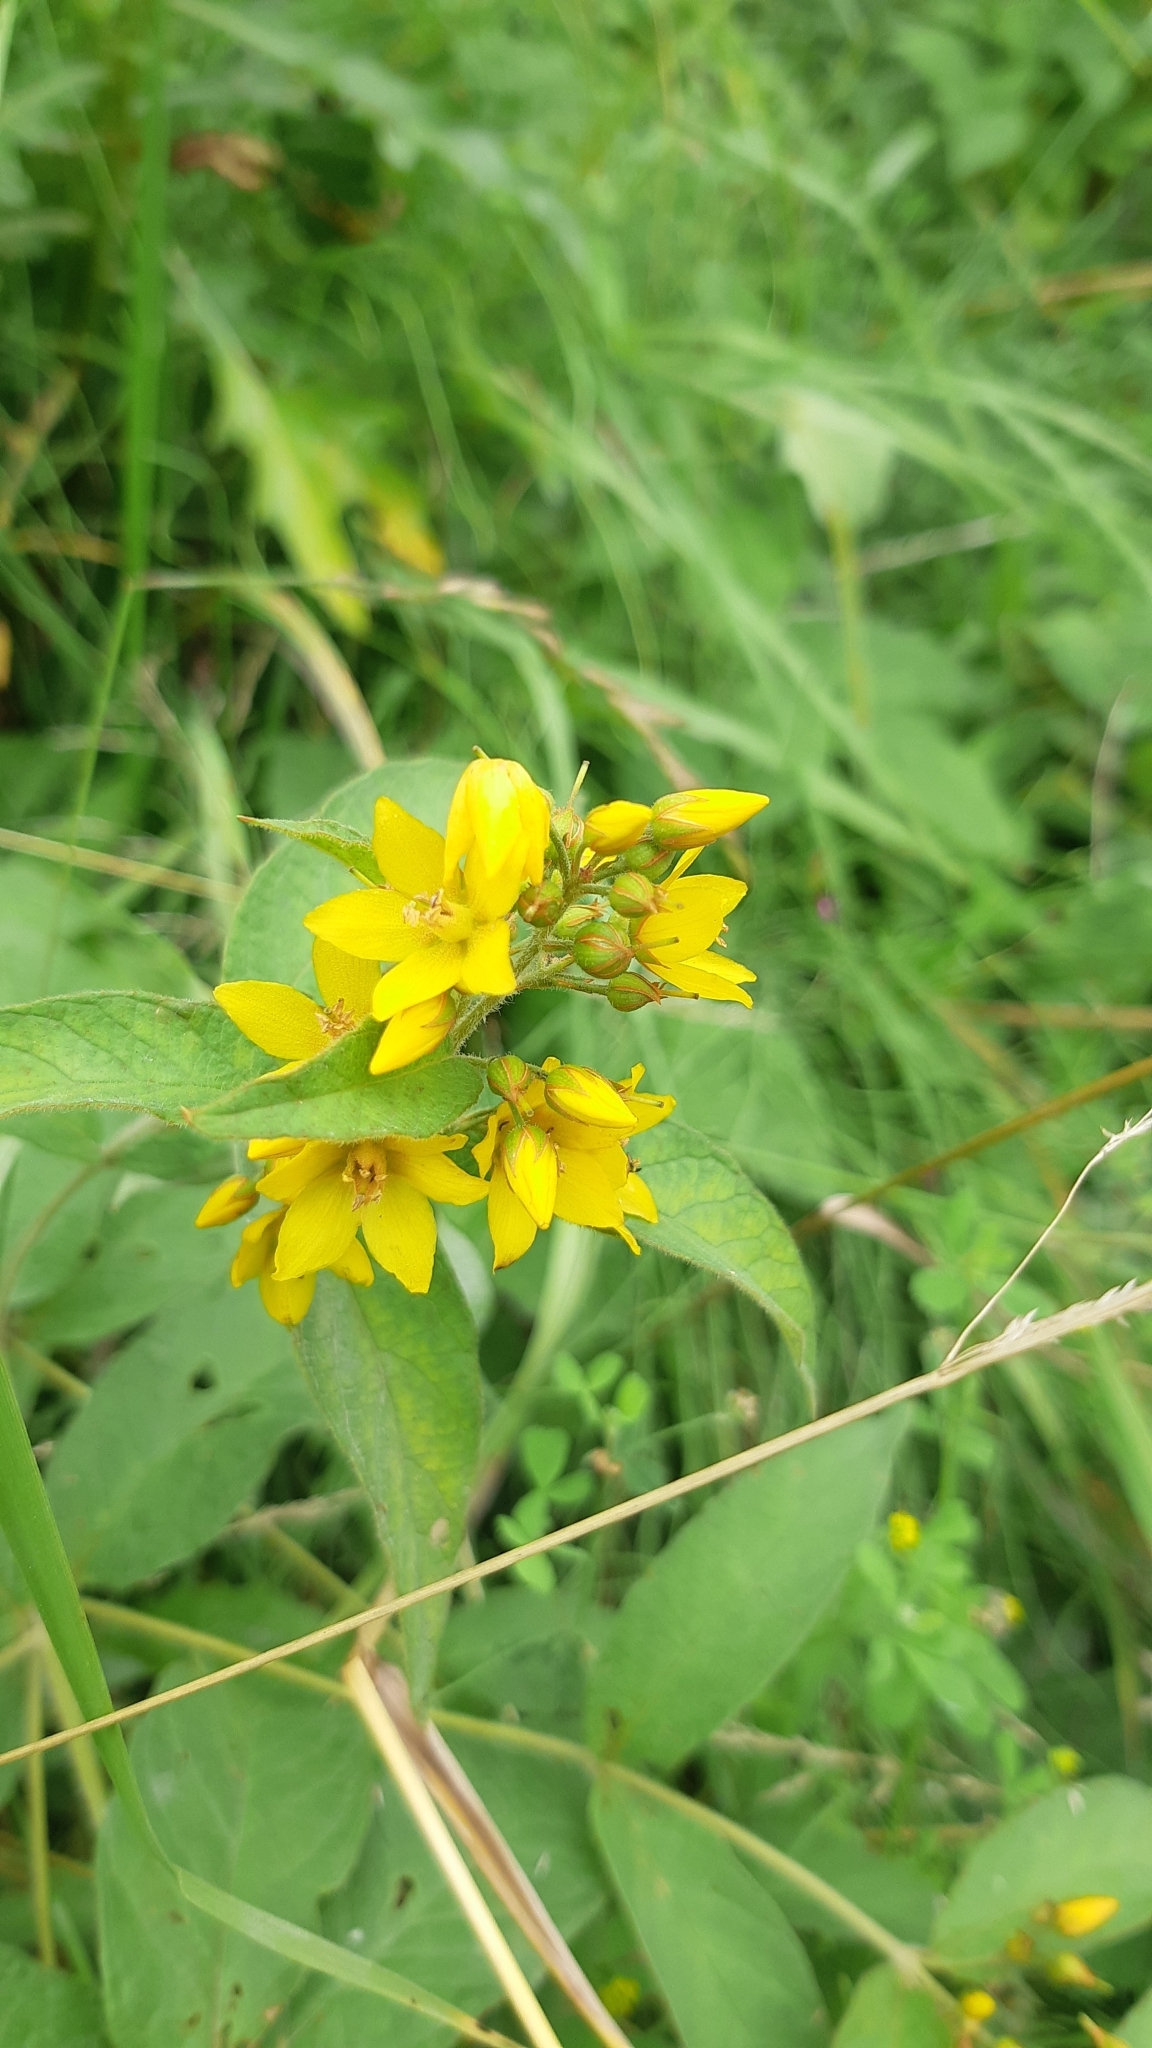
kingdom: Plantae
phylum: Tracheophyta
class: Magnoliopsida
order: Ericales
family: Primulaceae
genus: Lysimachia
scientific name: Lysimachia vulgaris
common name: Yellow loosestrife
